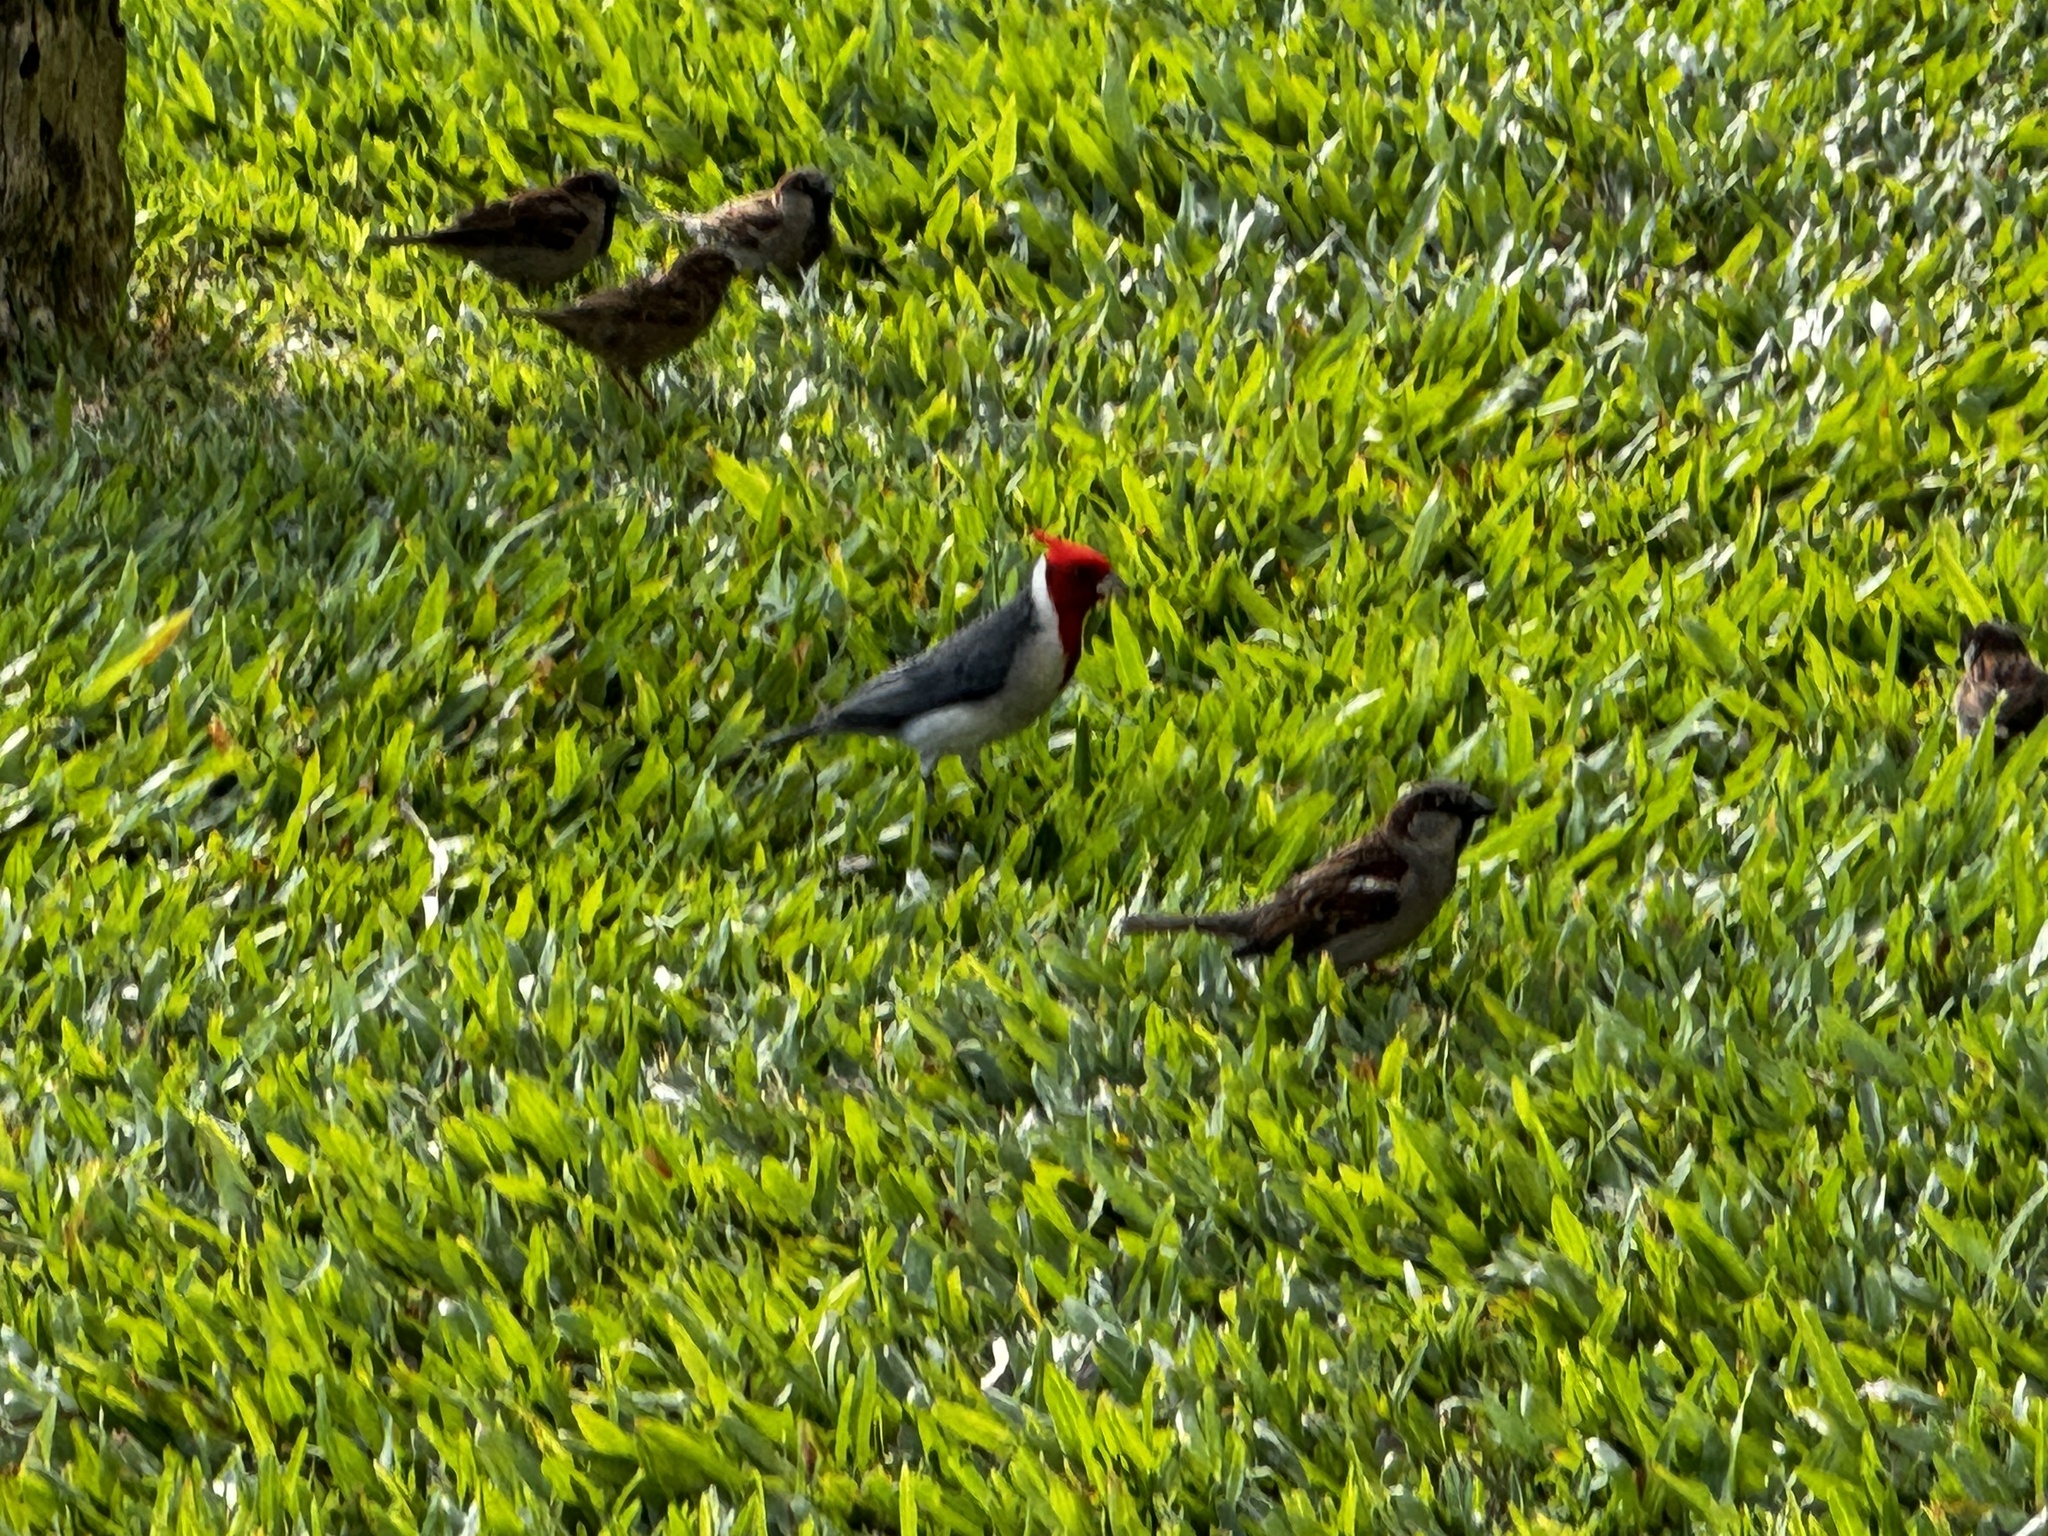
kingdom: Animalia
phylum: Chordata
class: Aves
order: Passeriformes
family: Thraupidae
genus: Paroaria
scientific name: Paroaria coronata
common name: Red-crested cardinal
